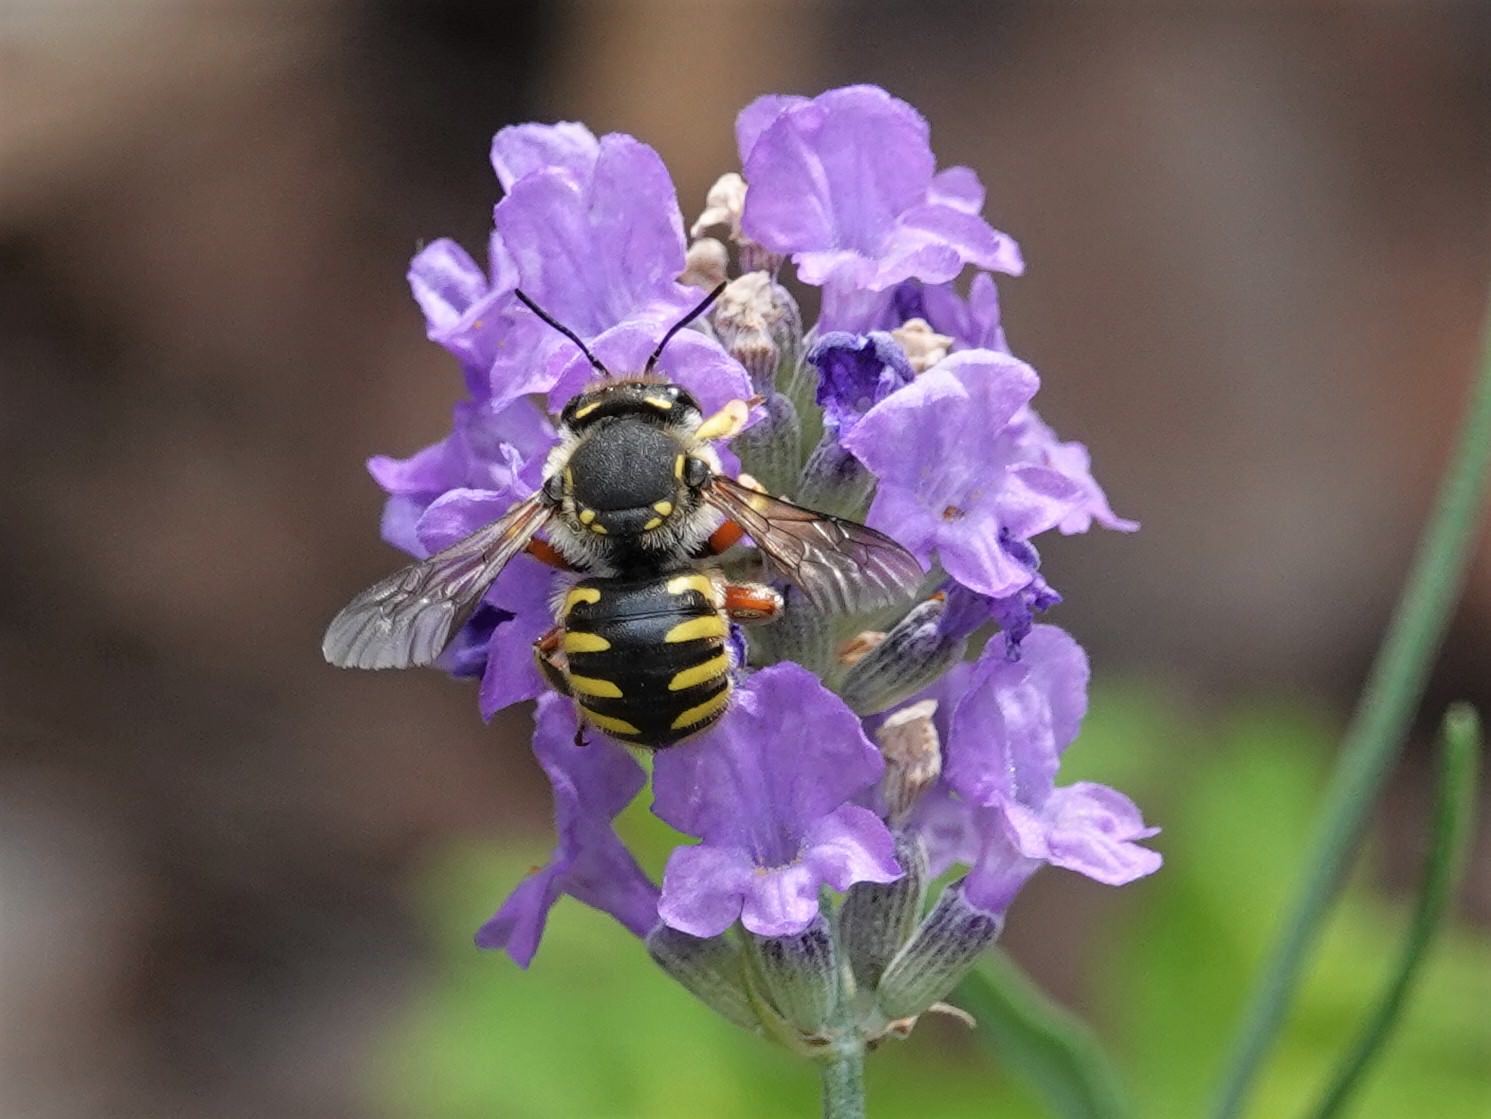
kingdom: Animalia
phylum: Arthropoda
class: Insecta
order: Hymenoptera
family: Megachilidae
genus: Anthidium
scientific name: Anthidium manicatum
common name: Wool carder bee
